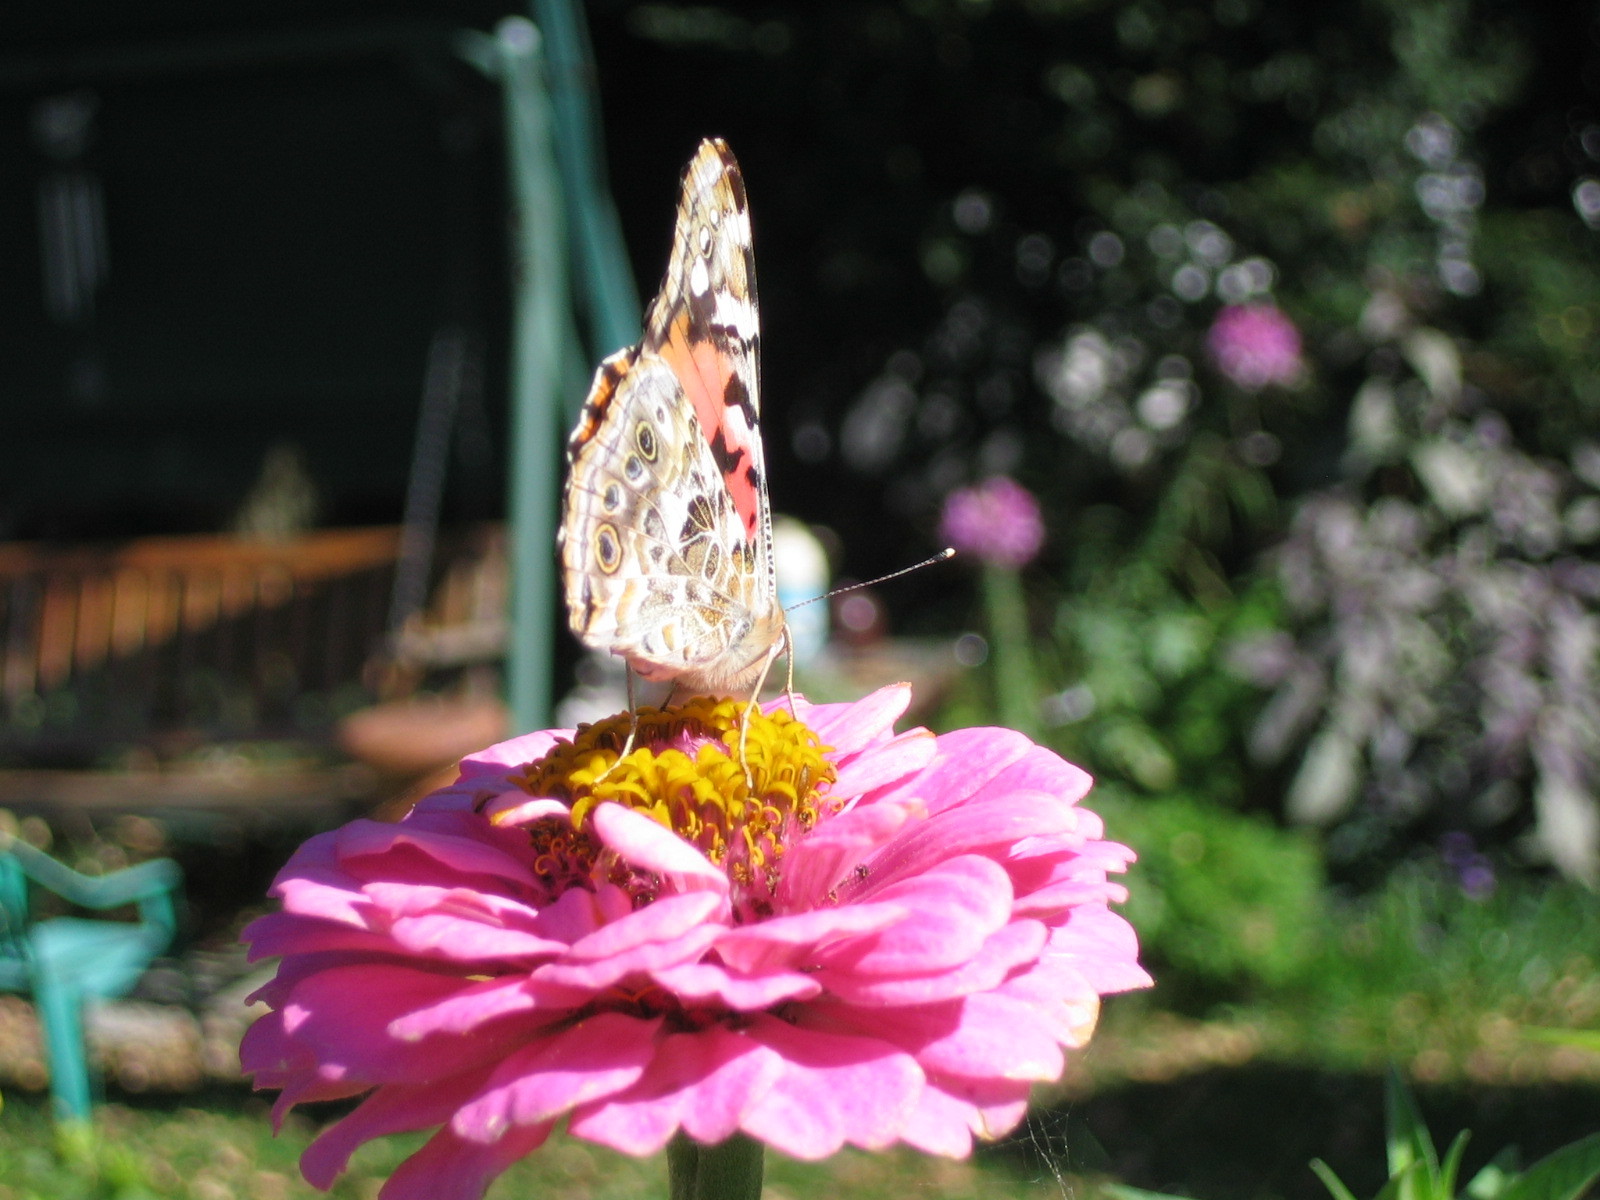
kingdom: Animalia
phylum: Arthropoda
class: Insecta
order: Lepidoptera
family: Nymphalidae
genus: Vanessa
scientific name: Vanessa cardui
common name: Painted lady
